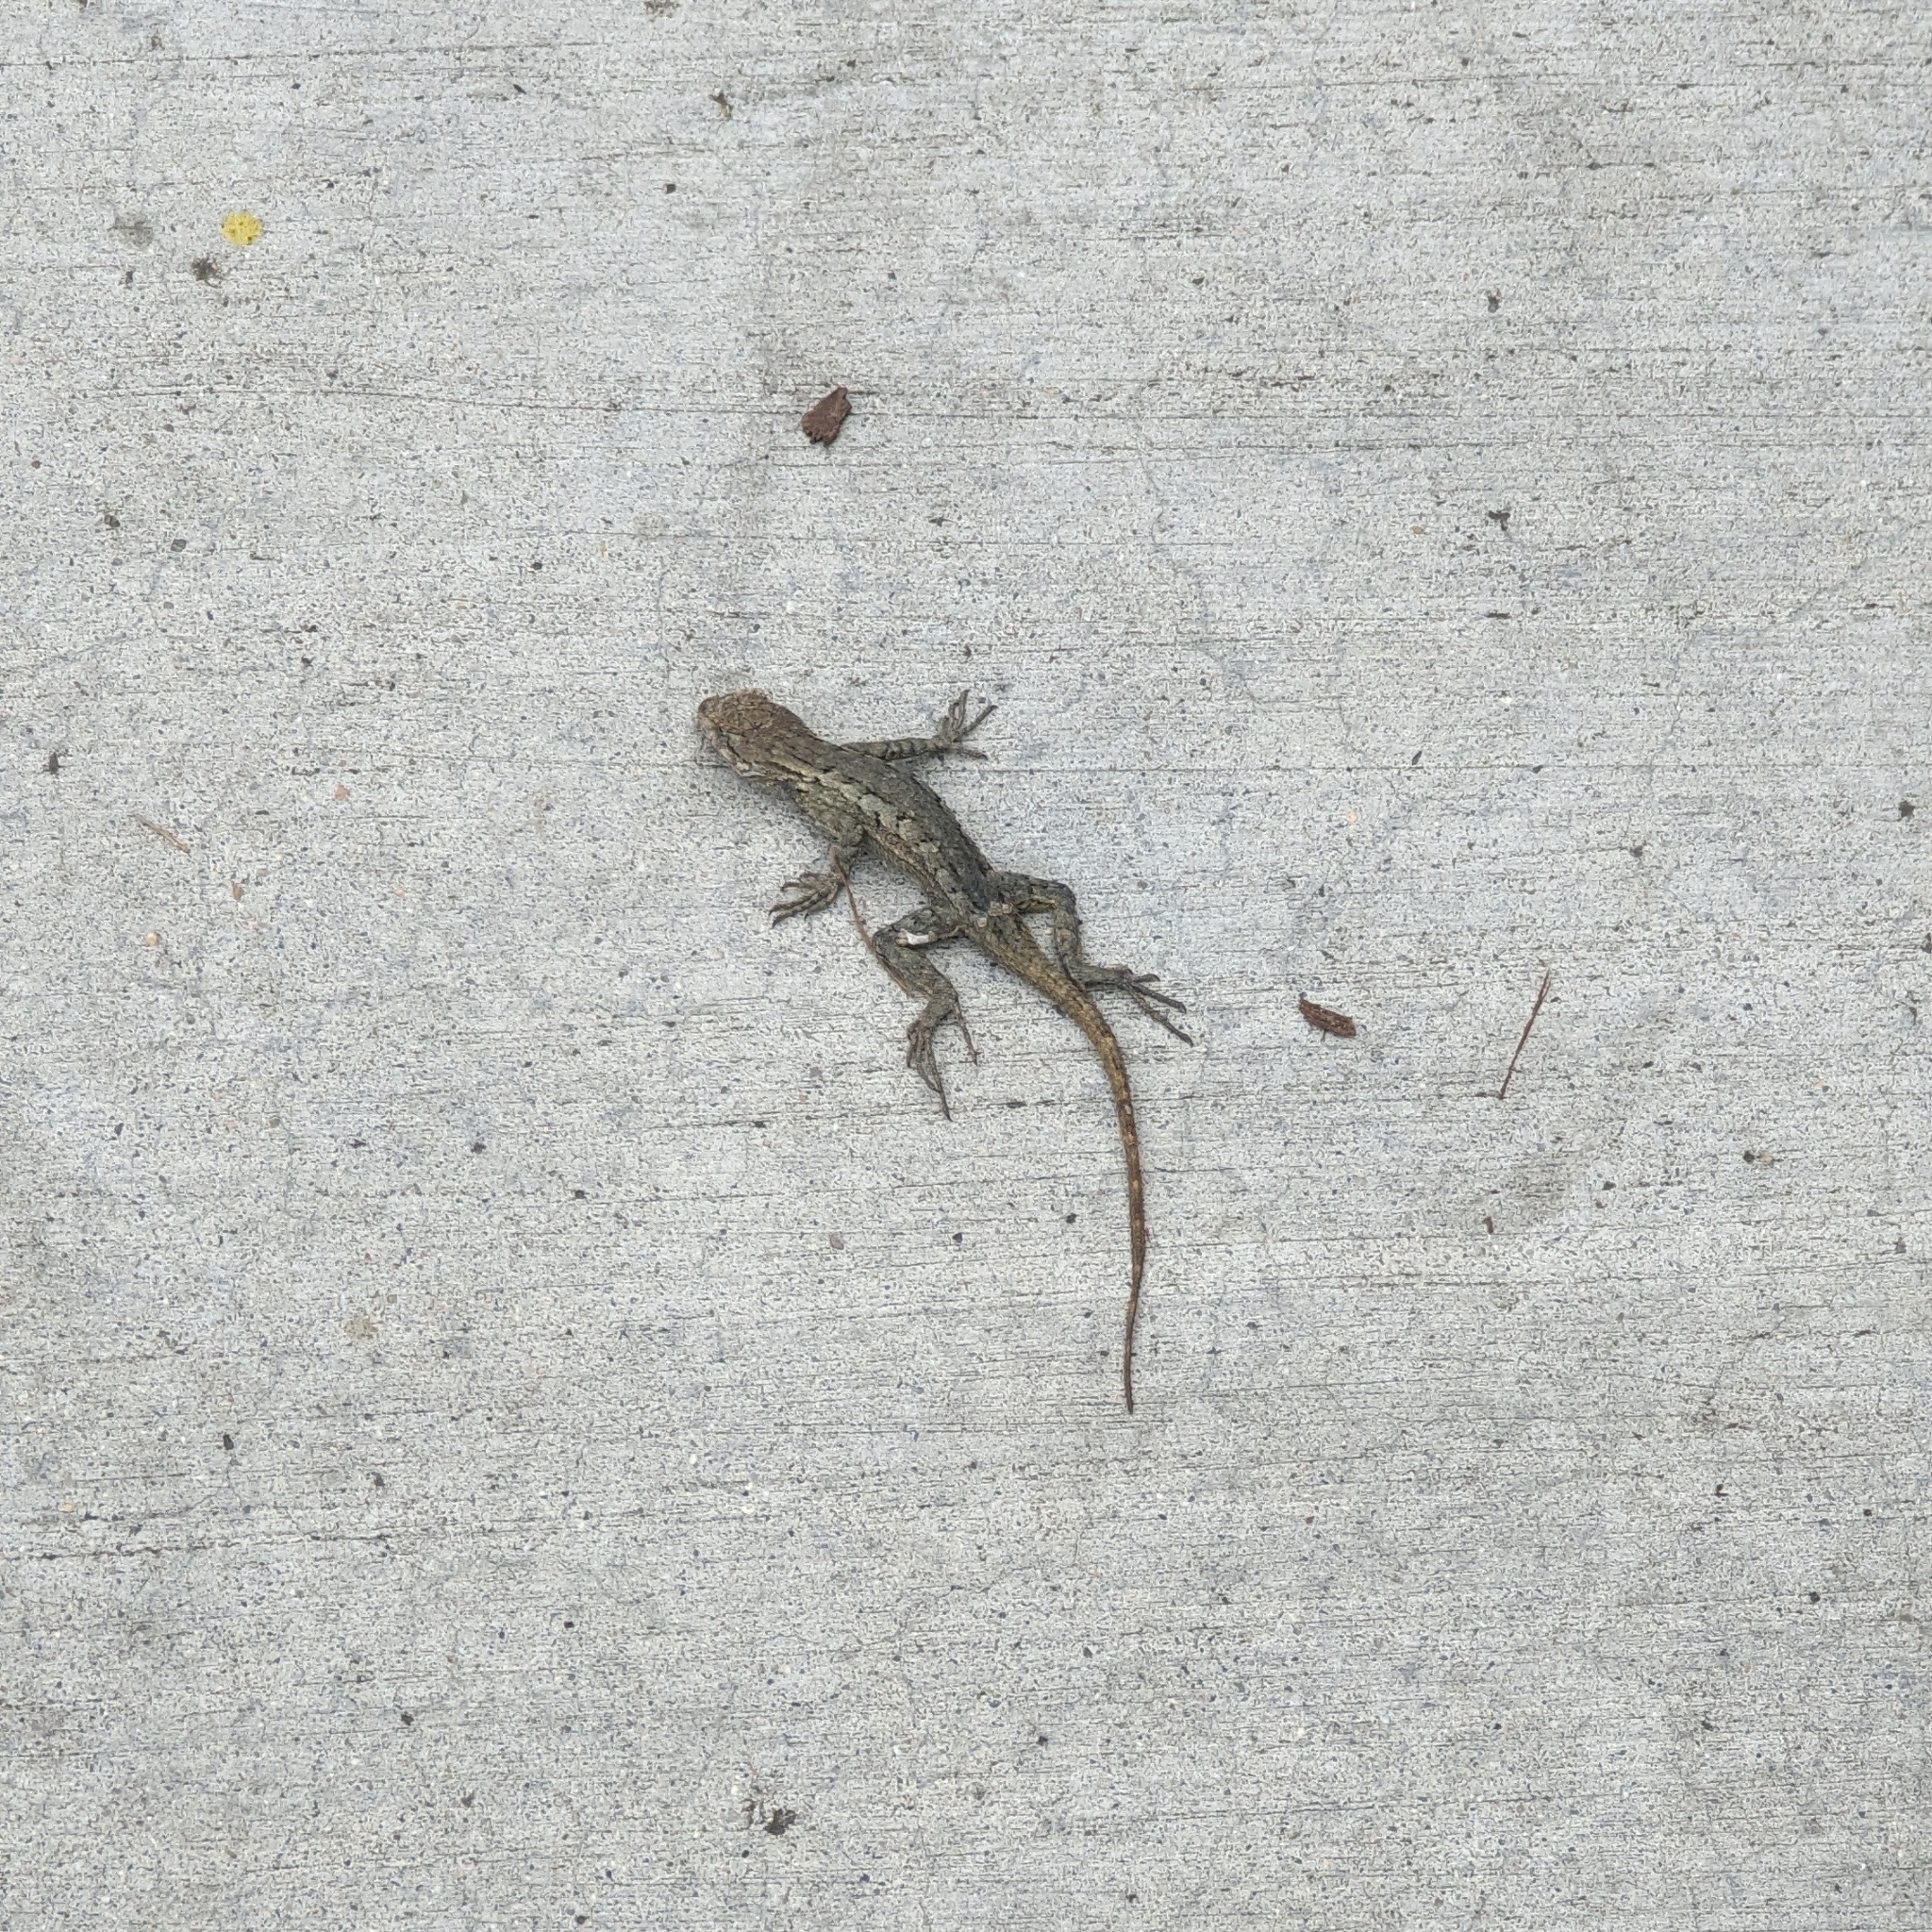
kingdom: Animalia
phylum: Chordata
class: Squamata
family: Phrynosomatidae
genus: Sceloporus
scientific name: Sceloporus occidentalis
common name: Western fence lizard
